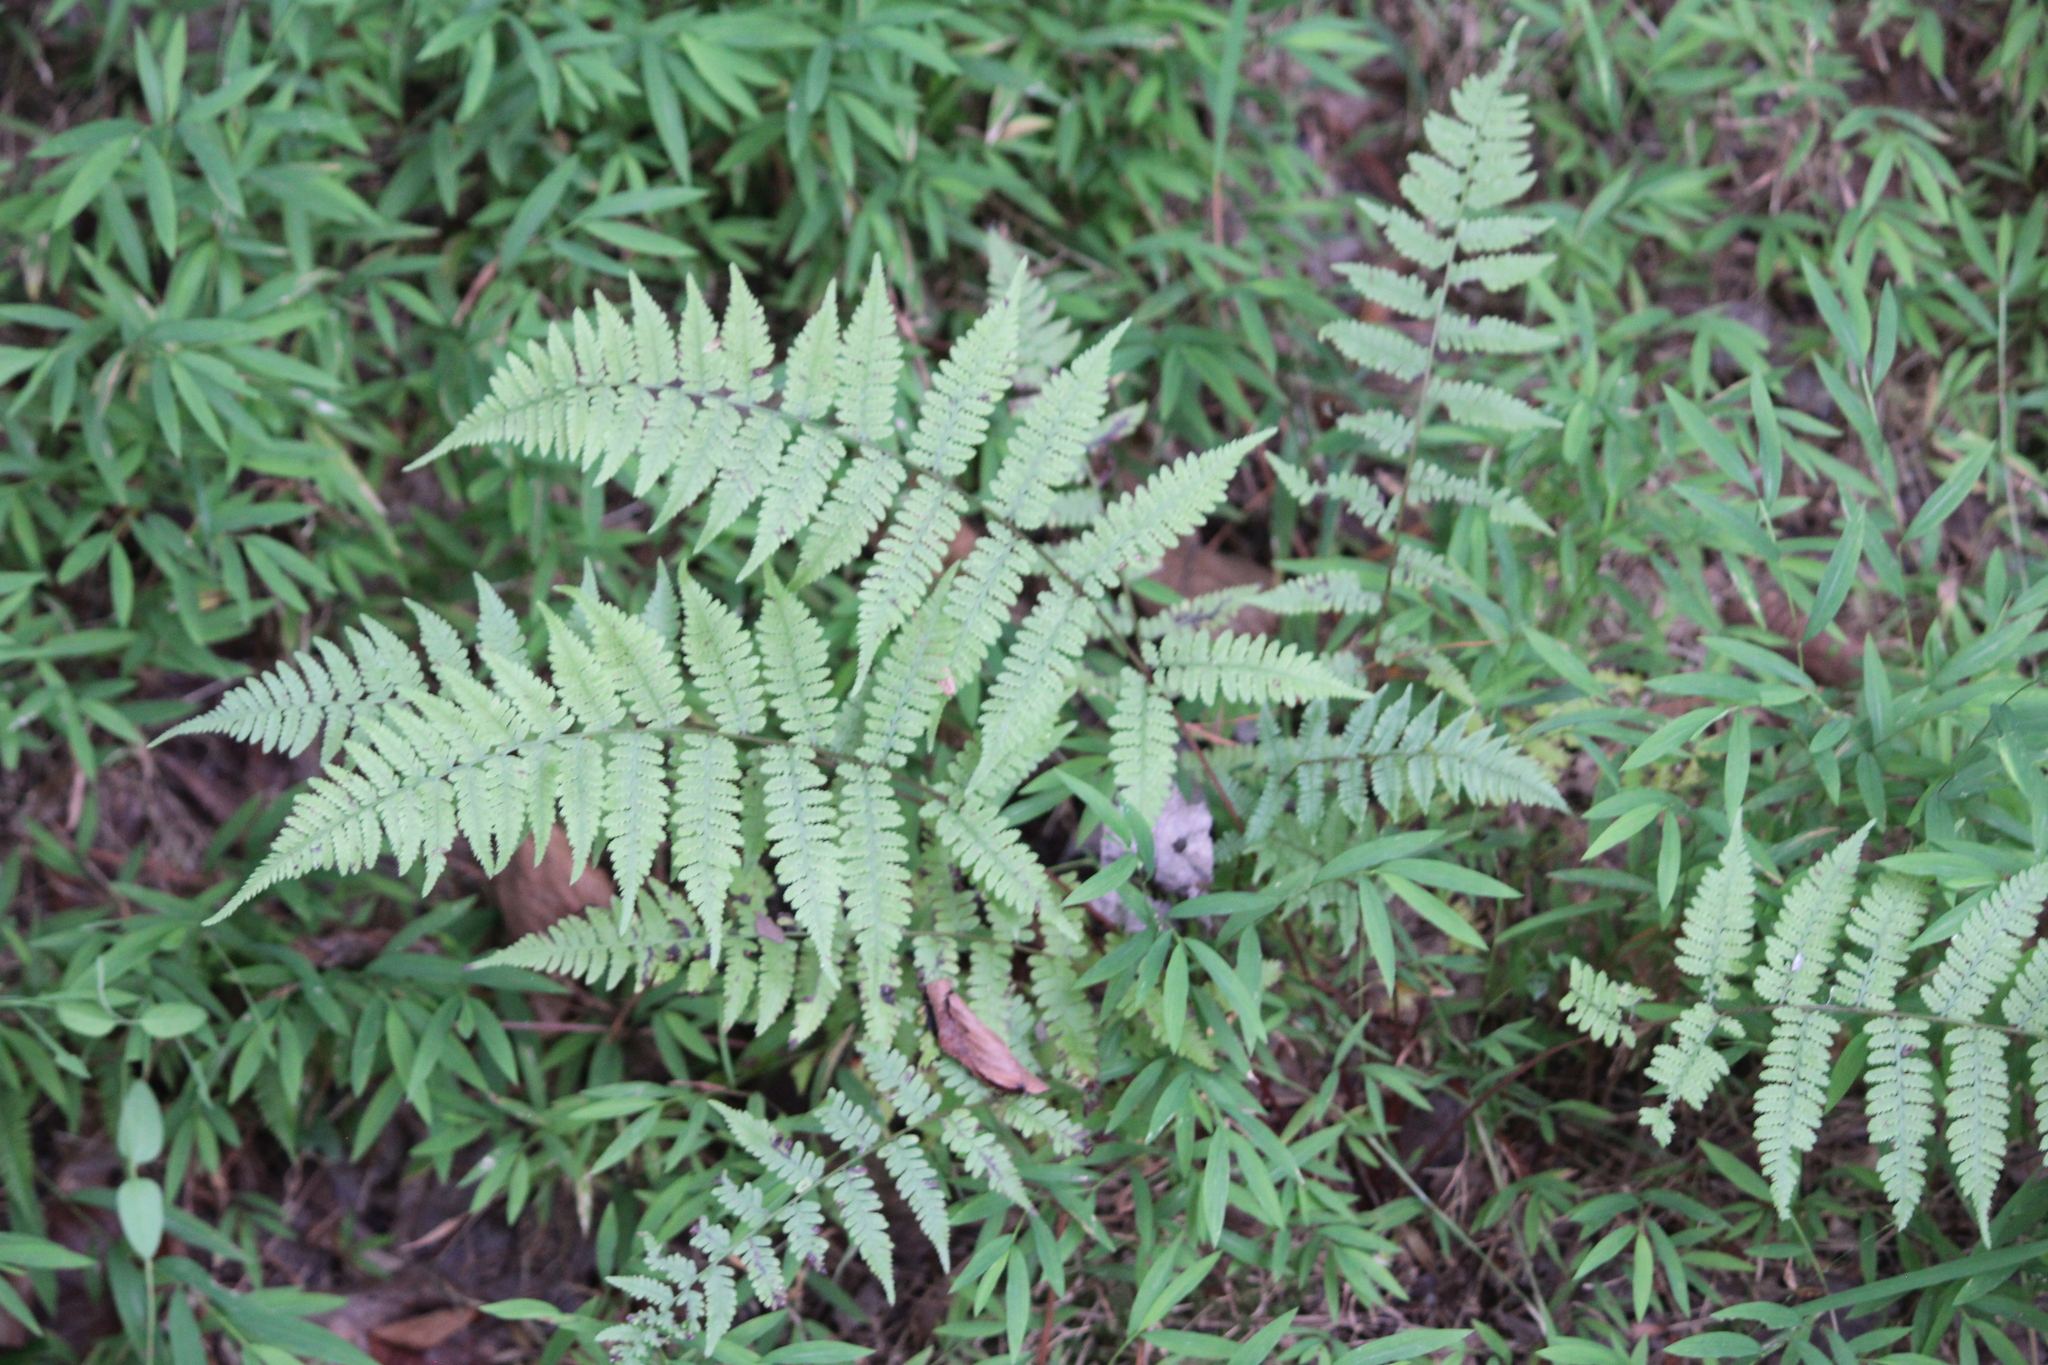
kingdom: Plantae
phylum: Tracheophyta
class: Polypodiopsida
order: Polypodiales
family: Athyriaceae
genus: Athyrium
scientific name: Athyrium asplenioides
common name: Southern lady fern
